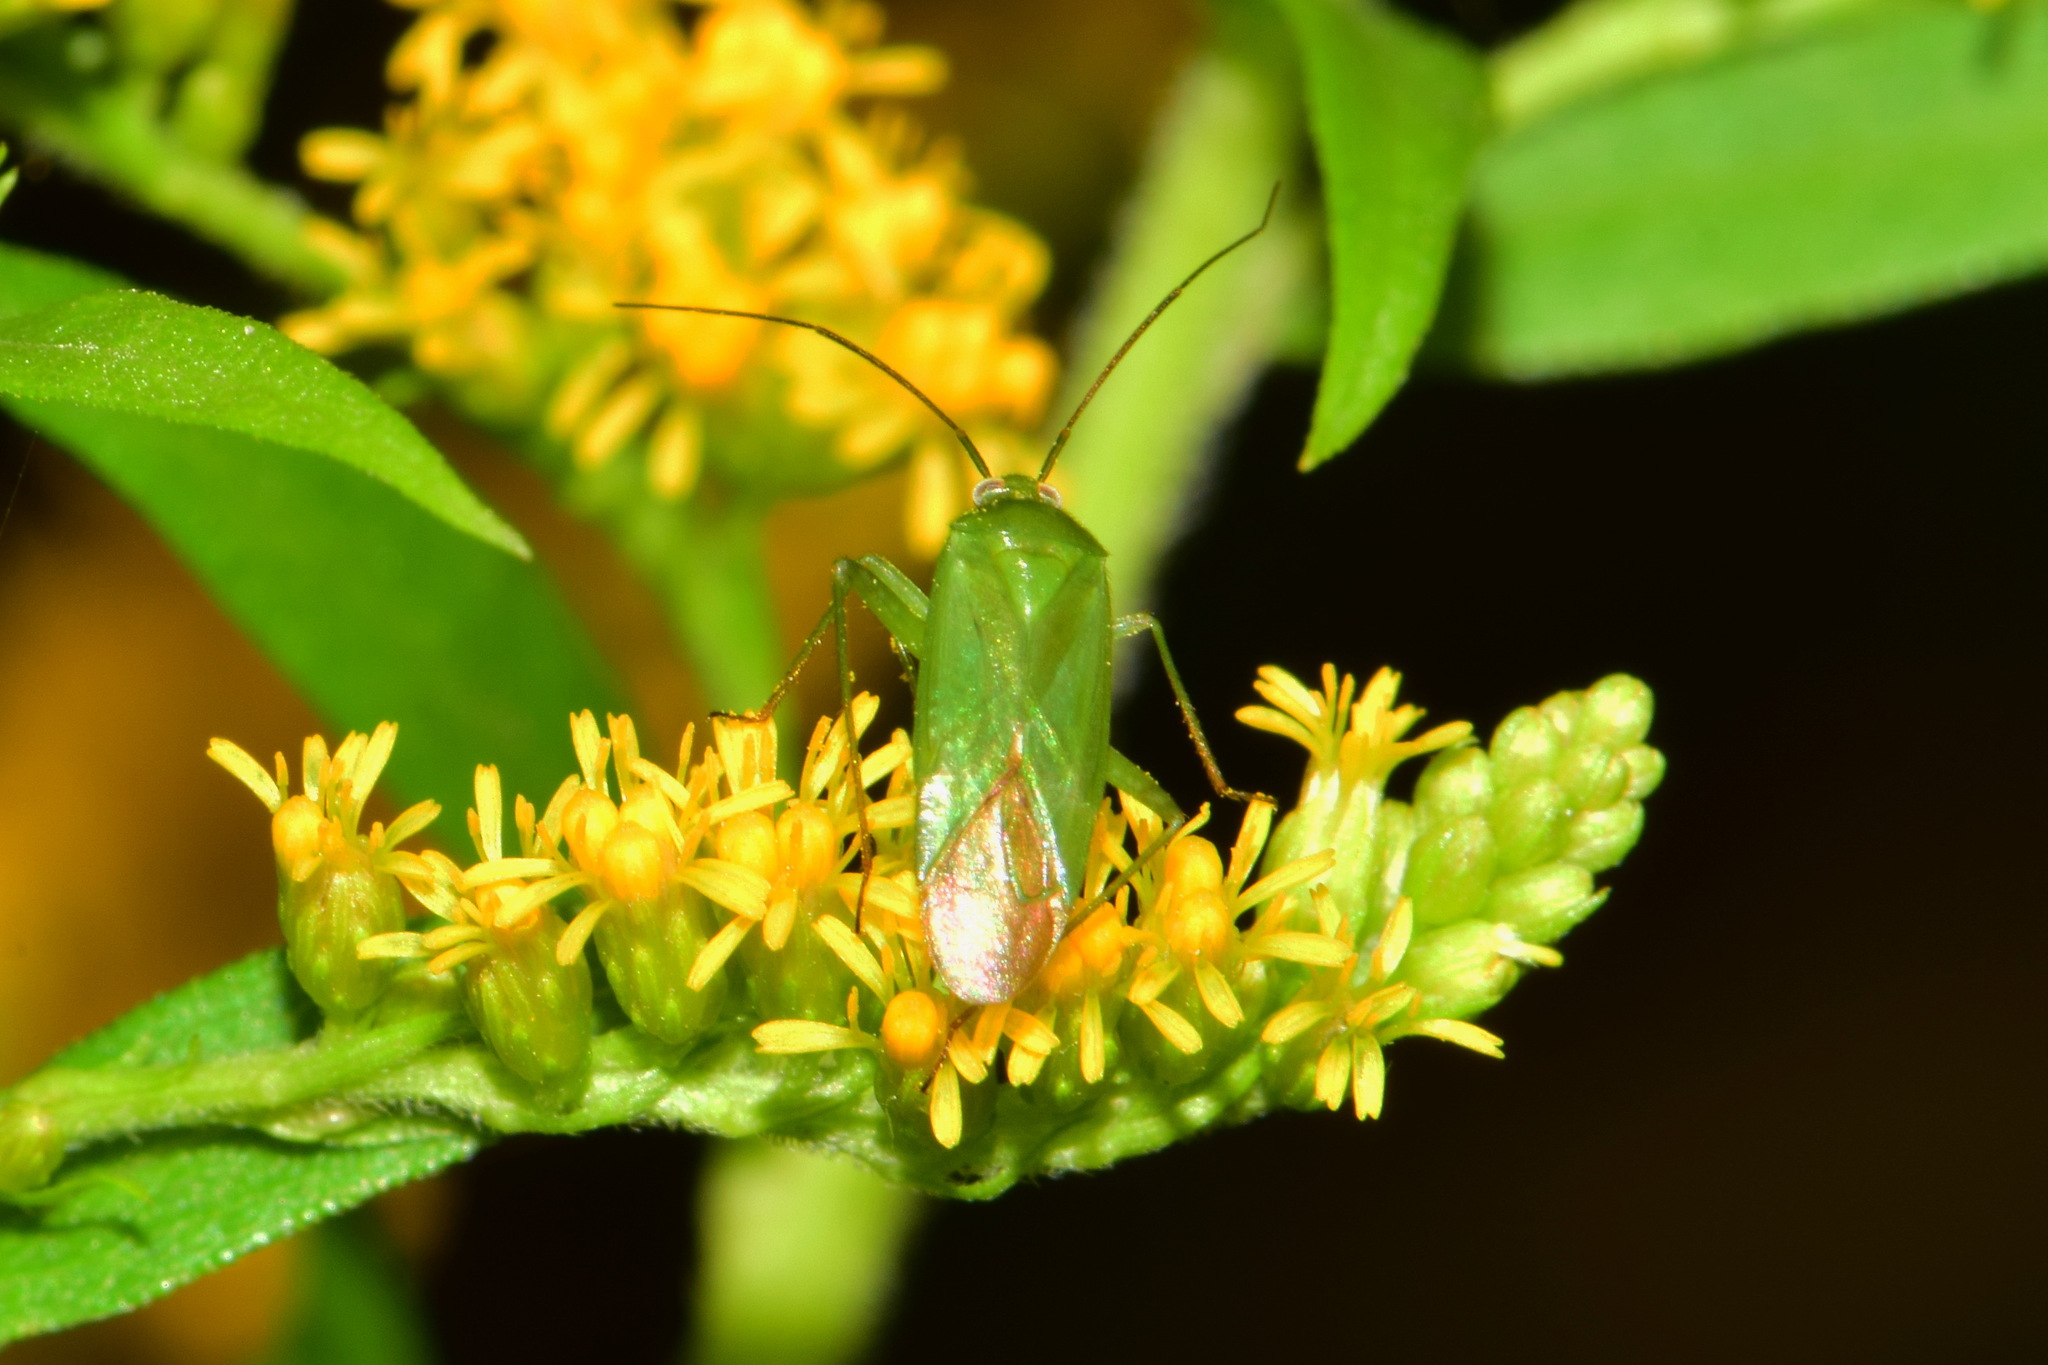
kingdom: Animalia
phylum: Arthropoda
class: Insecta
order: Hemiptera
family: Miridae
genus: Lygocoris
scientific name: Lygocoris pabulinus
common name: Common green capsid
